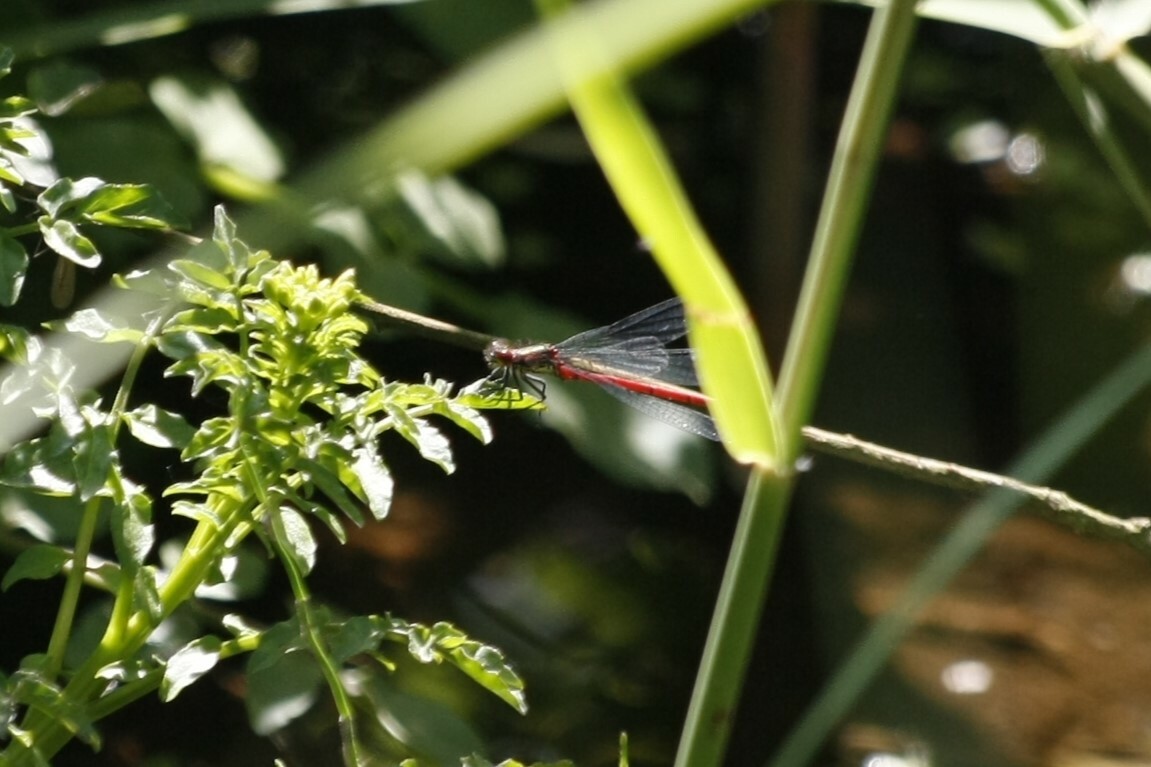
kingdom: Animalia
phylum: Arthropoda
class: Insecta
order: Odonata
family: Coenagrionidae
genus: Pyrrhosoma
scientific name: Pyrrhosoma nymphula
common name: Large red damsel
